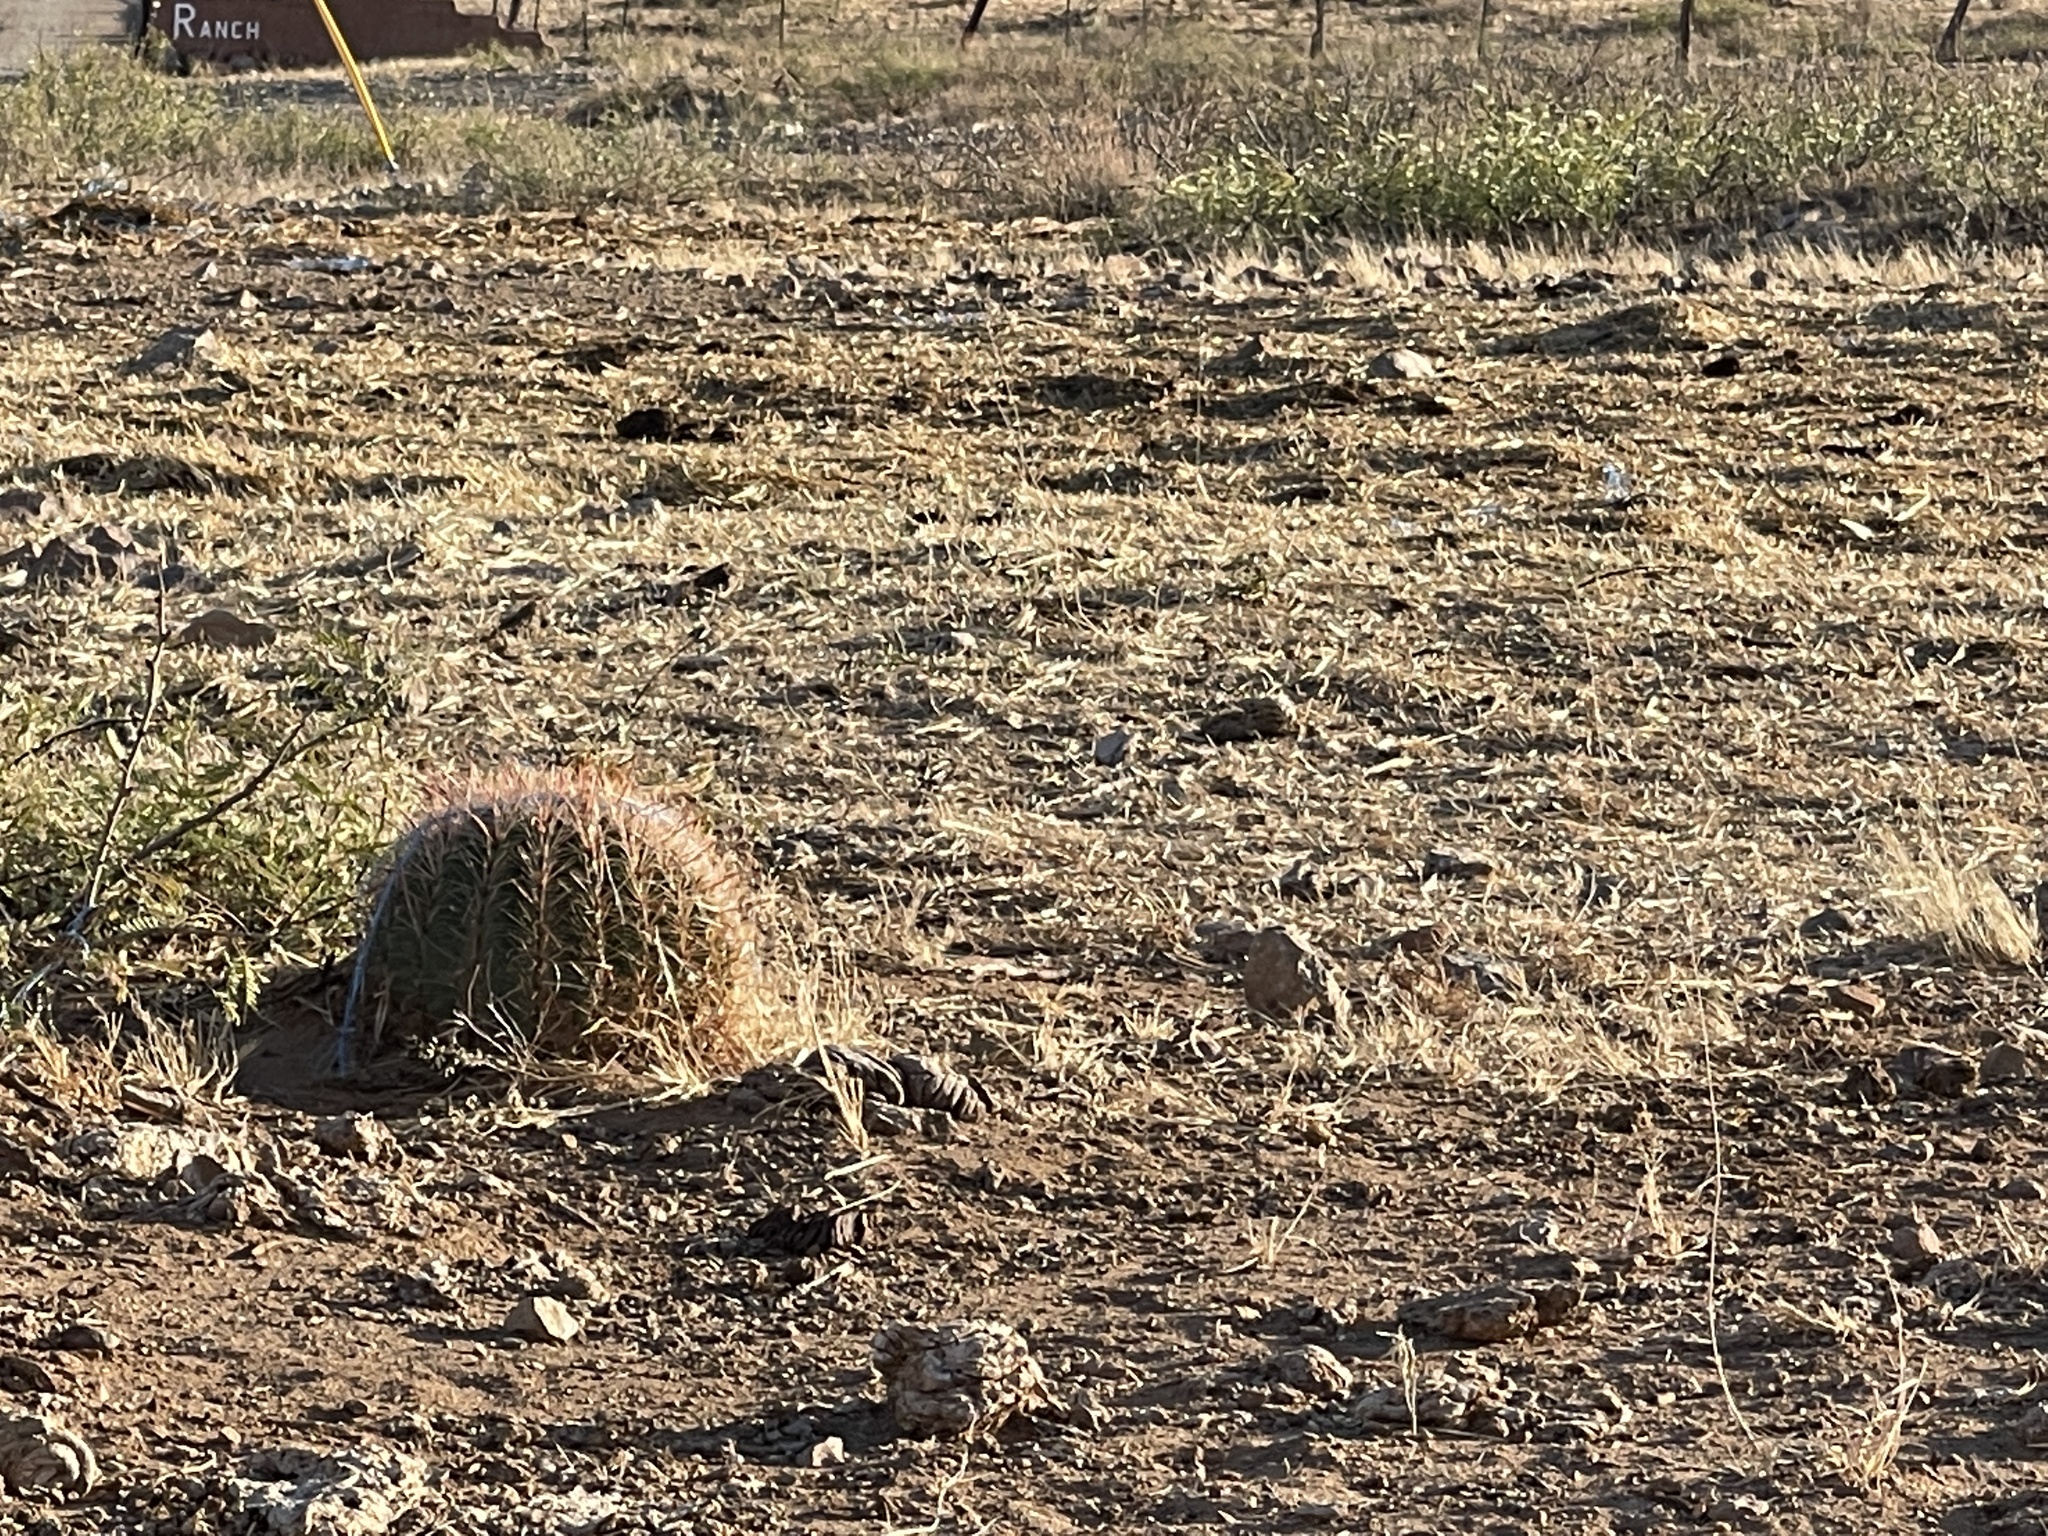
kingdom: Plantae
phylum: Tracheophyta
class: Magnoliopsida
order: Caryophyllales
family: Cactaceae
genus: Ferocactus
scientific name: Ferocactus wislizeni
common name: Candy barrel cactus
